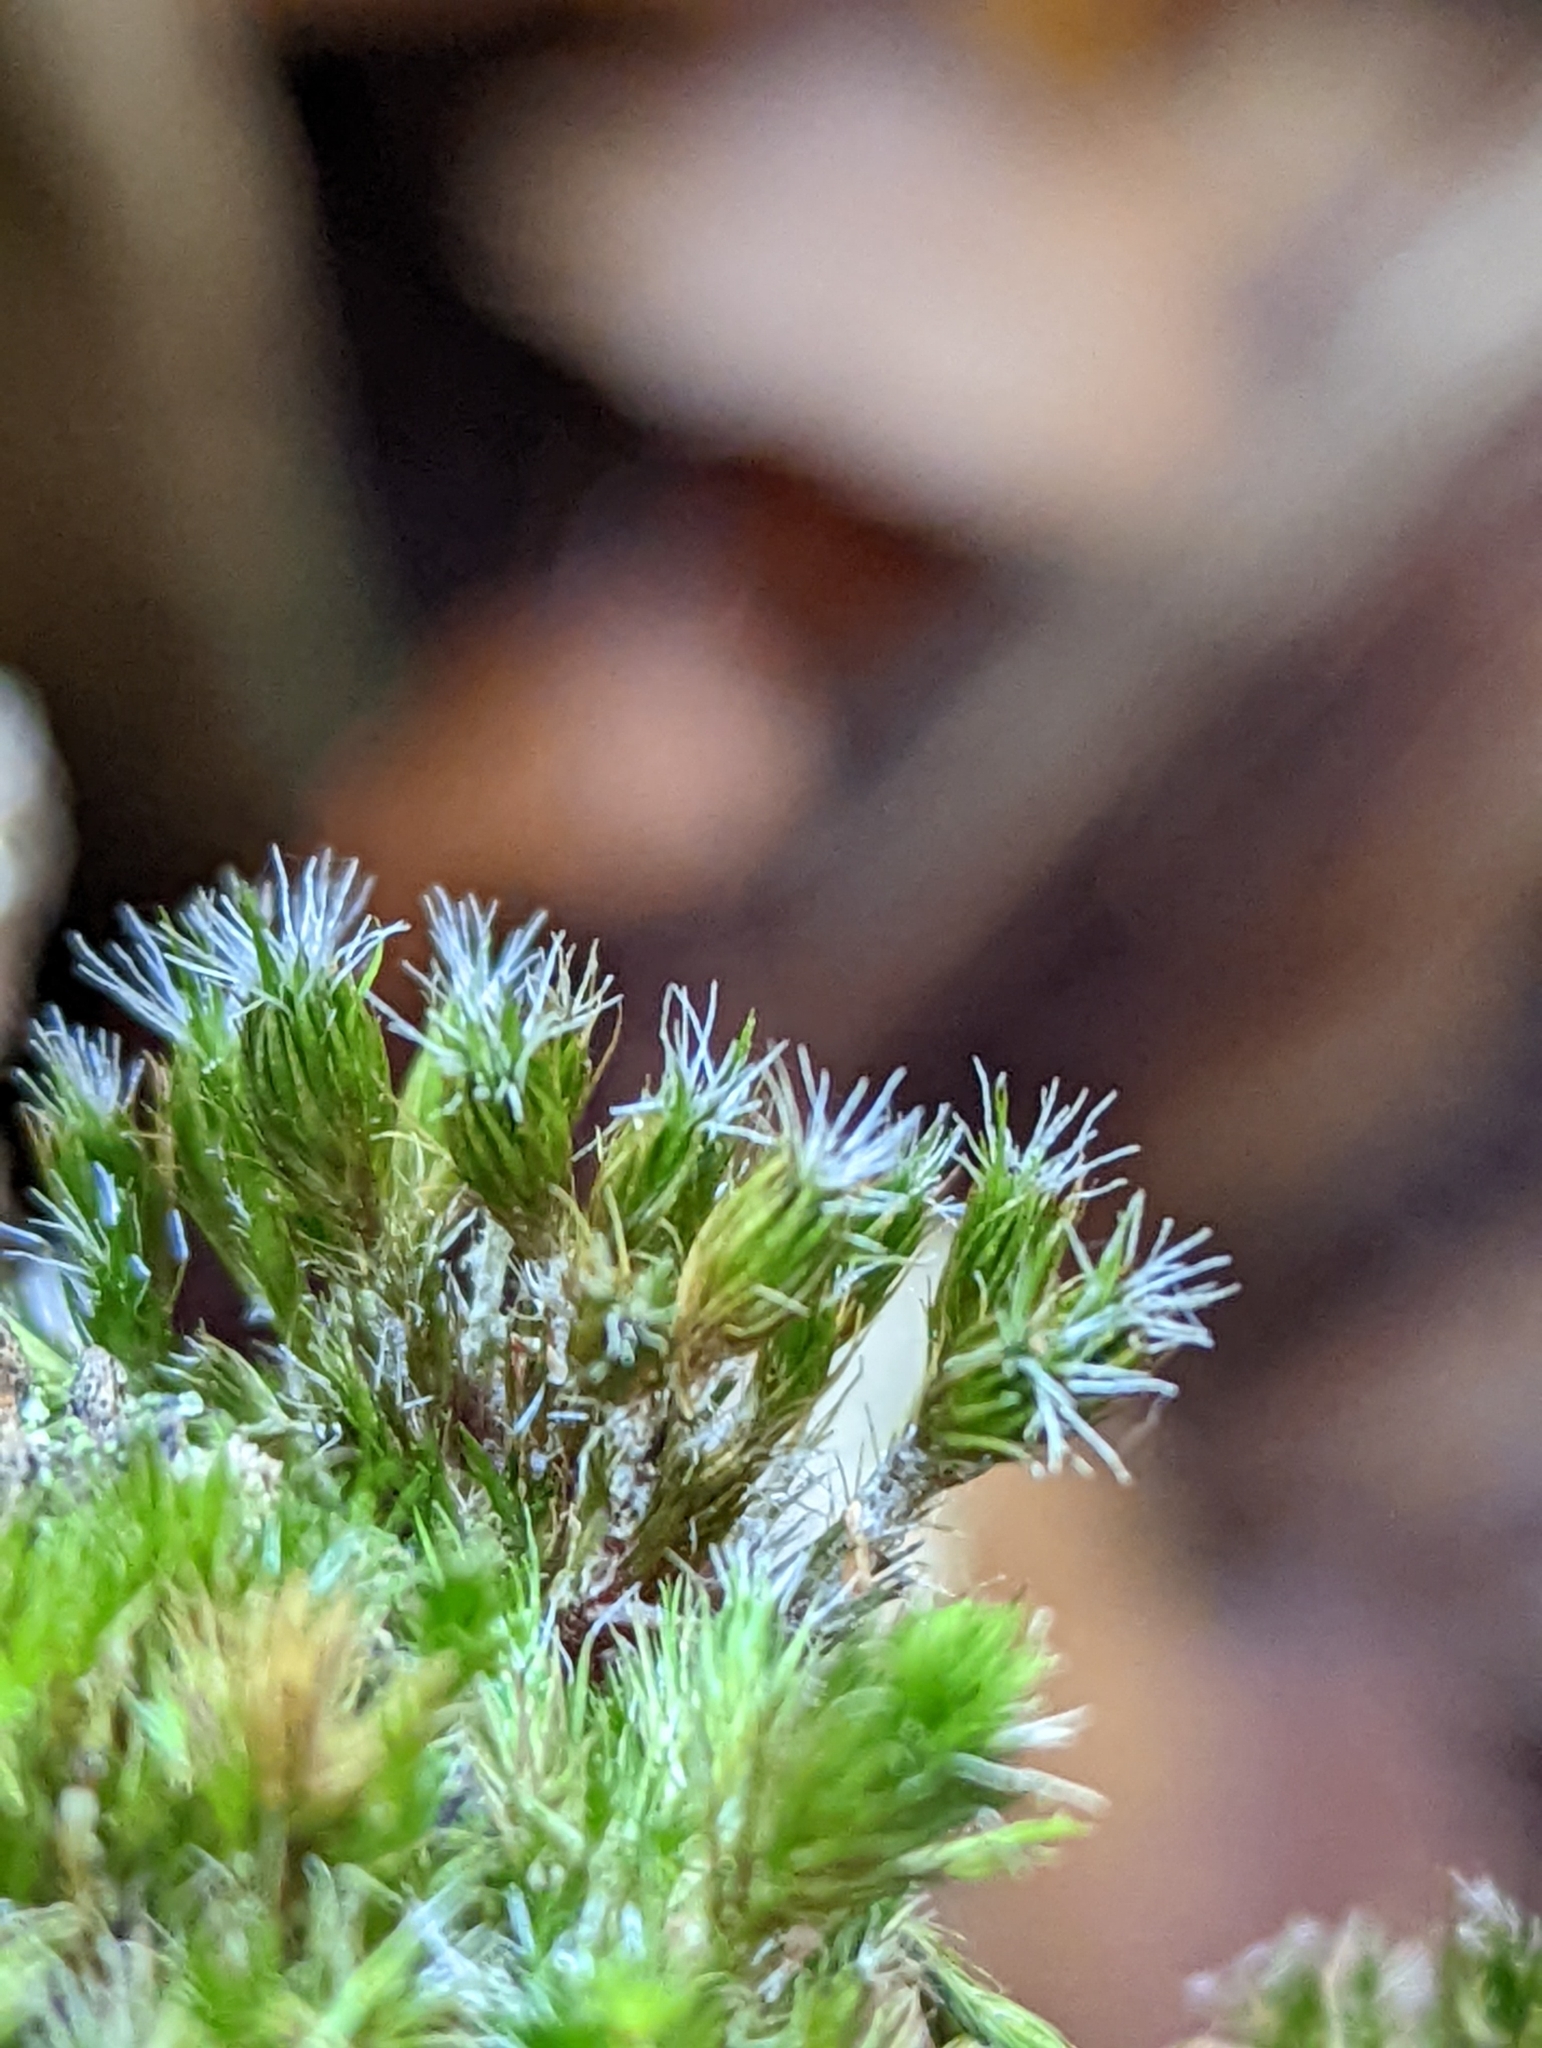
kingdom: Plantae
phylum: Bryophyta
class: Bryopsida
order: Dicranales
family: Leucobryaceae
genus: Campylopus
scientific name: Campylopus introflexus
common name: Heath star moss
